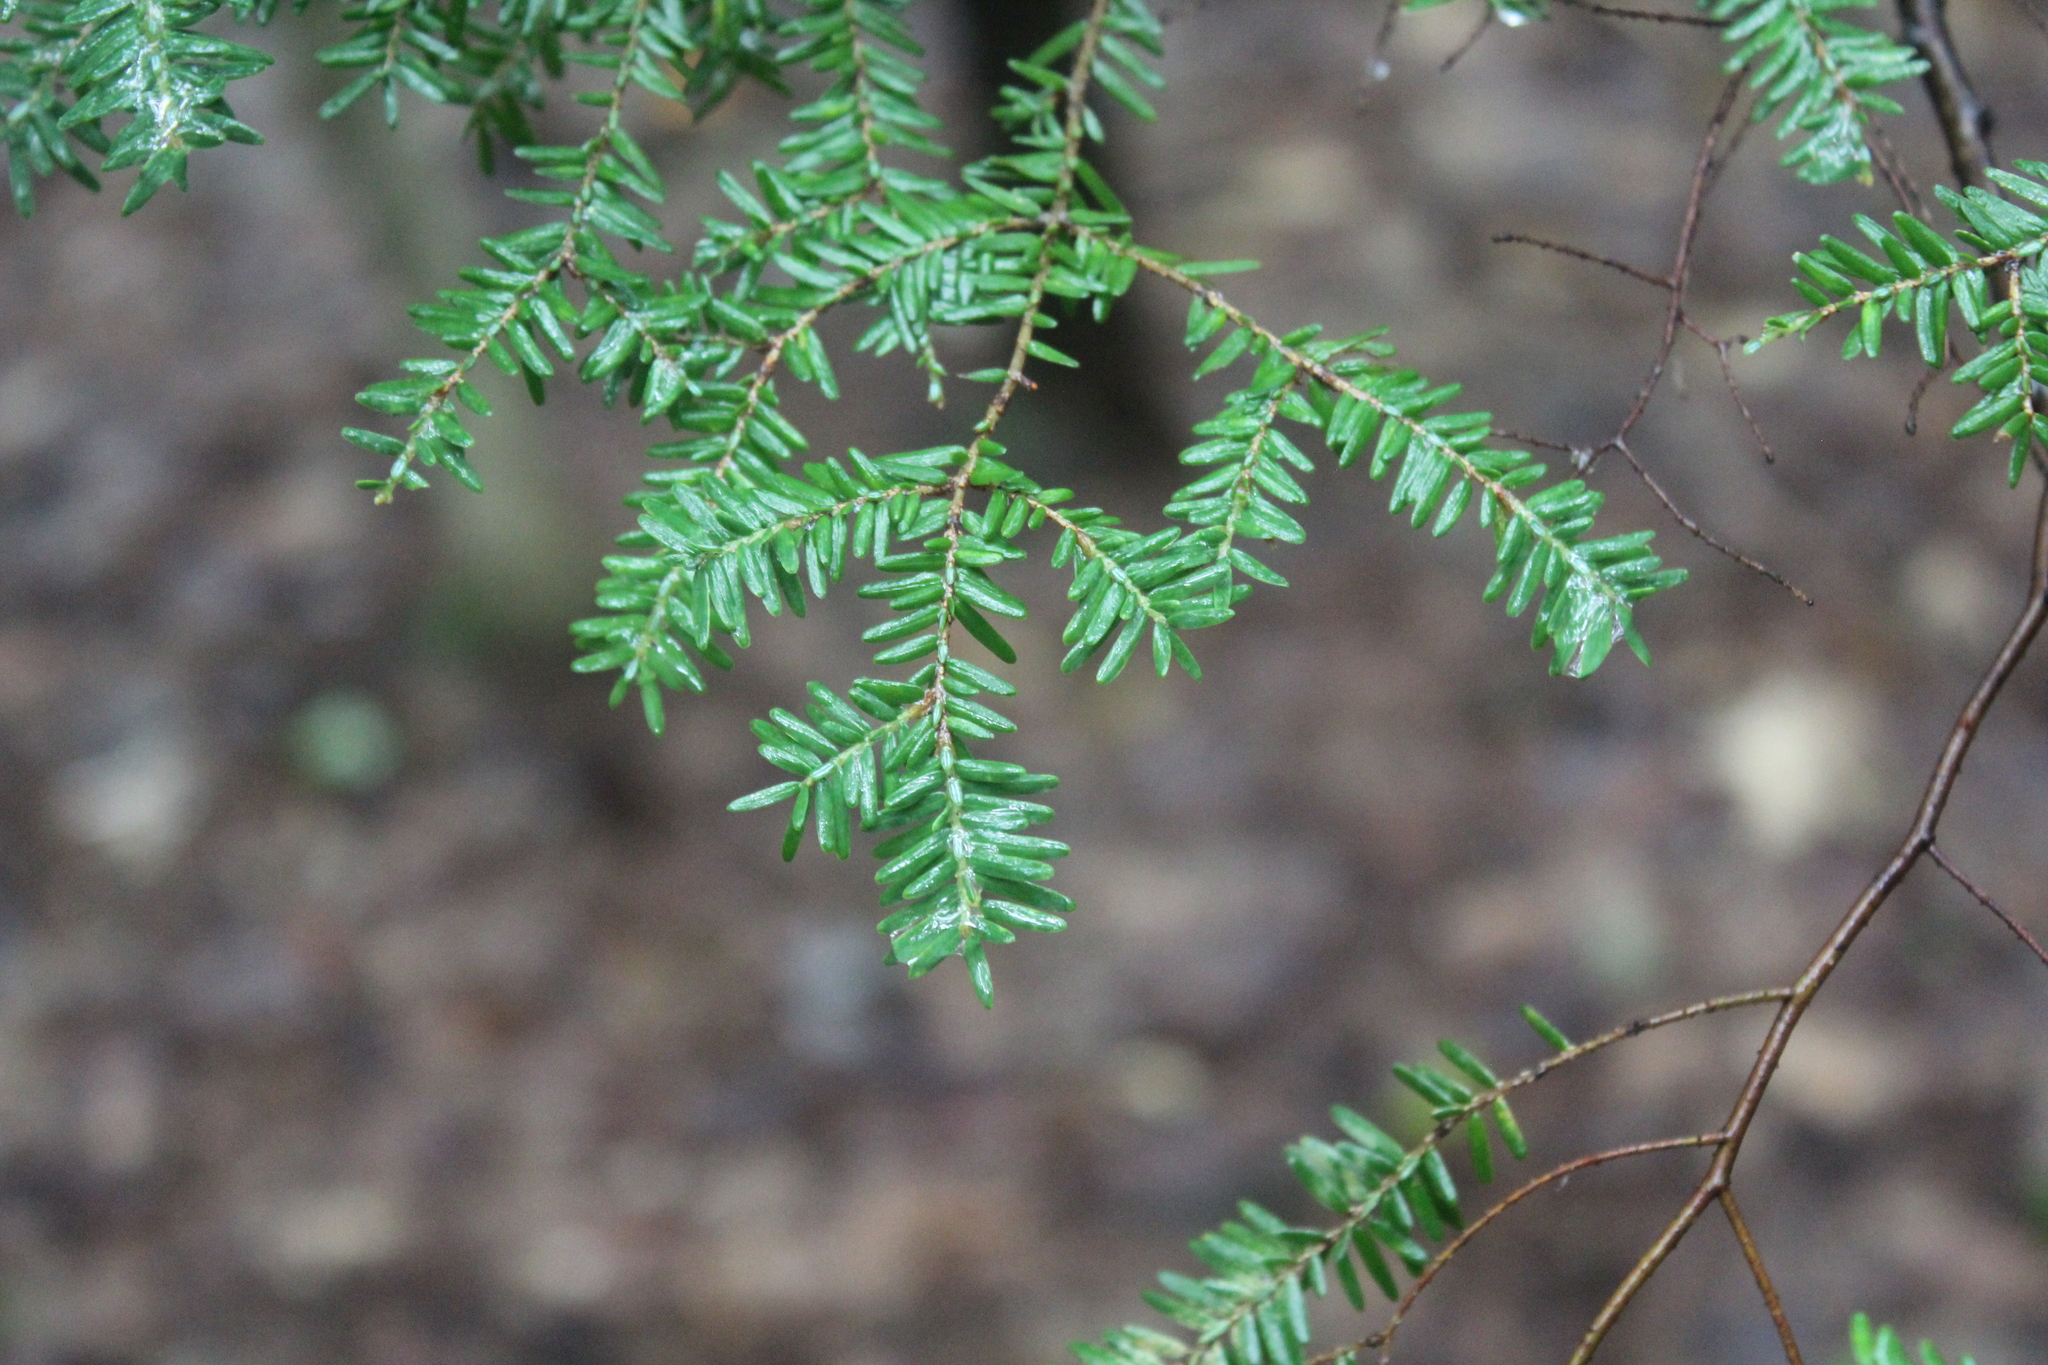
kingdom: Plantae
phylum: Tracheophyta
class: Pinopsida
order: Pinales
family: Pinaceae
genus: Tsuga
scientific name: Tsuga canadensis
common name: Eastern hemlock
